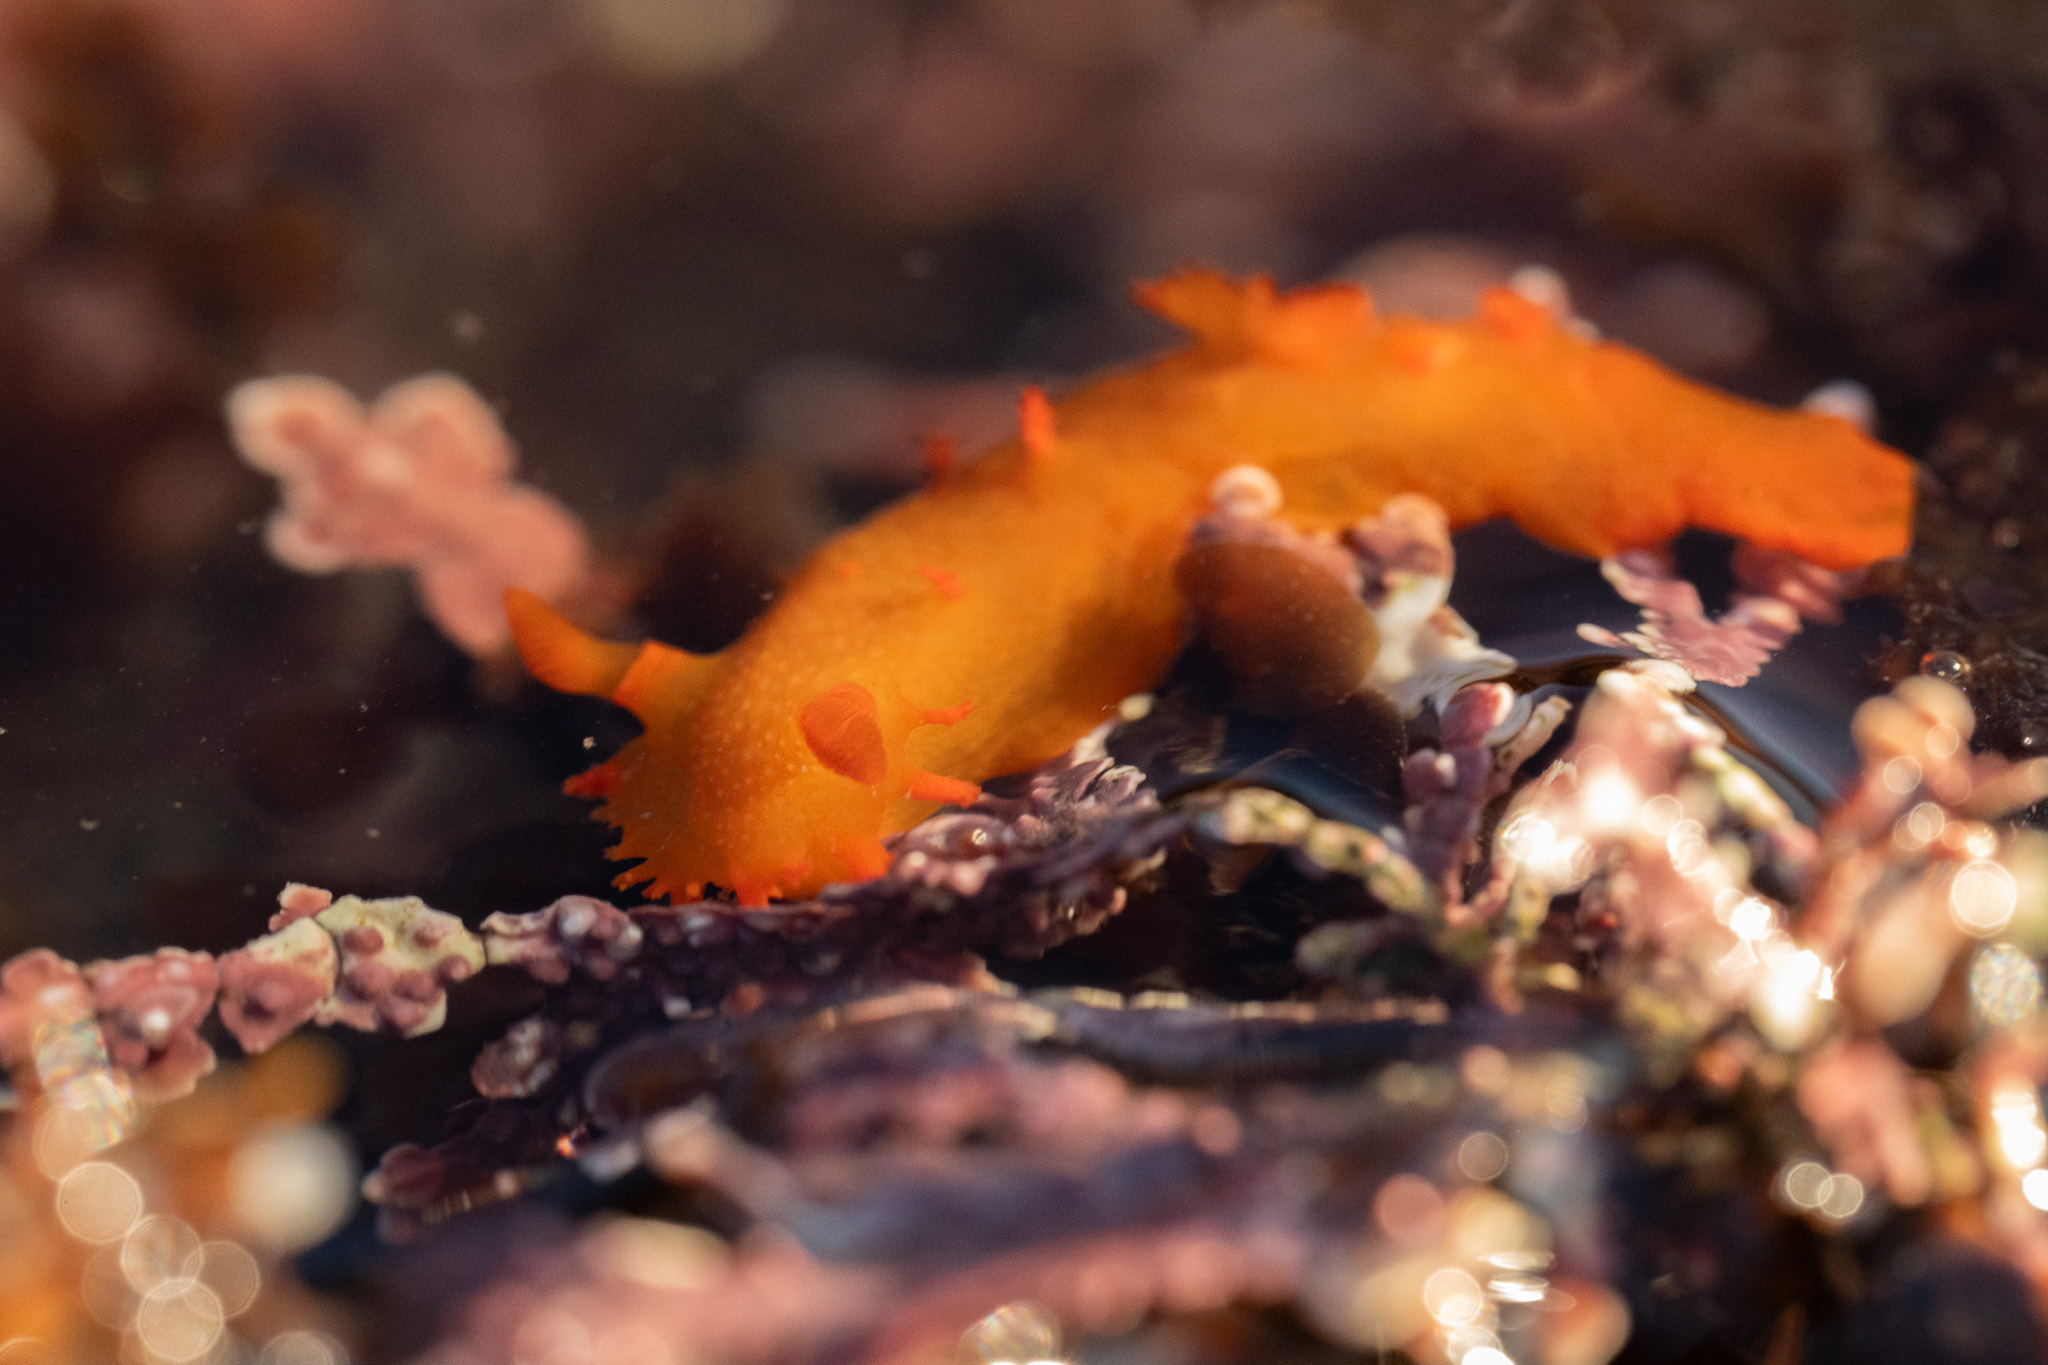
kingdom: Animalia
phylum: Mollusca
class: Gastropoda
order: Nudibranchia
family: Polyceridae
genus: Triopha
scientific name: Triopha maculata
